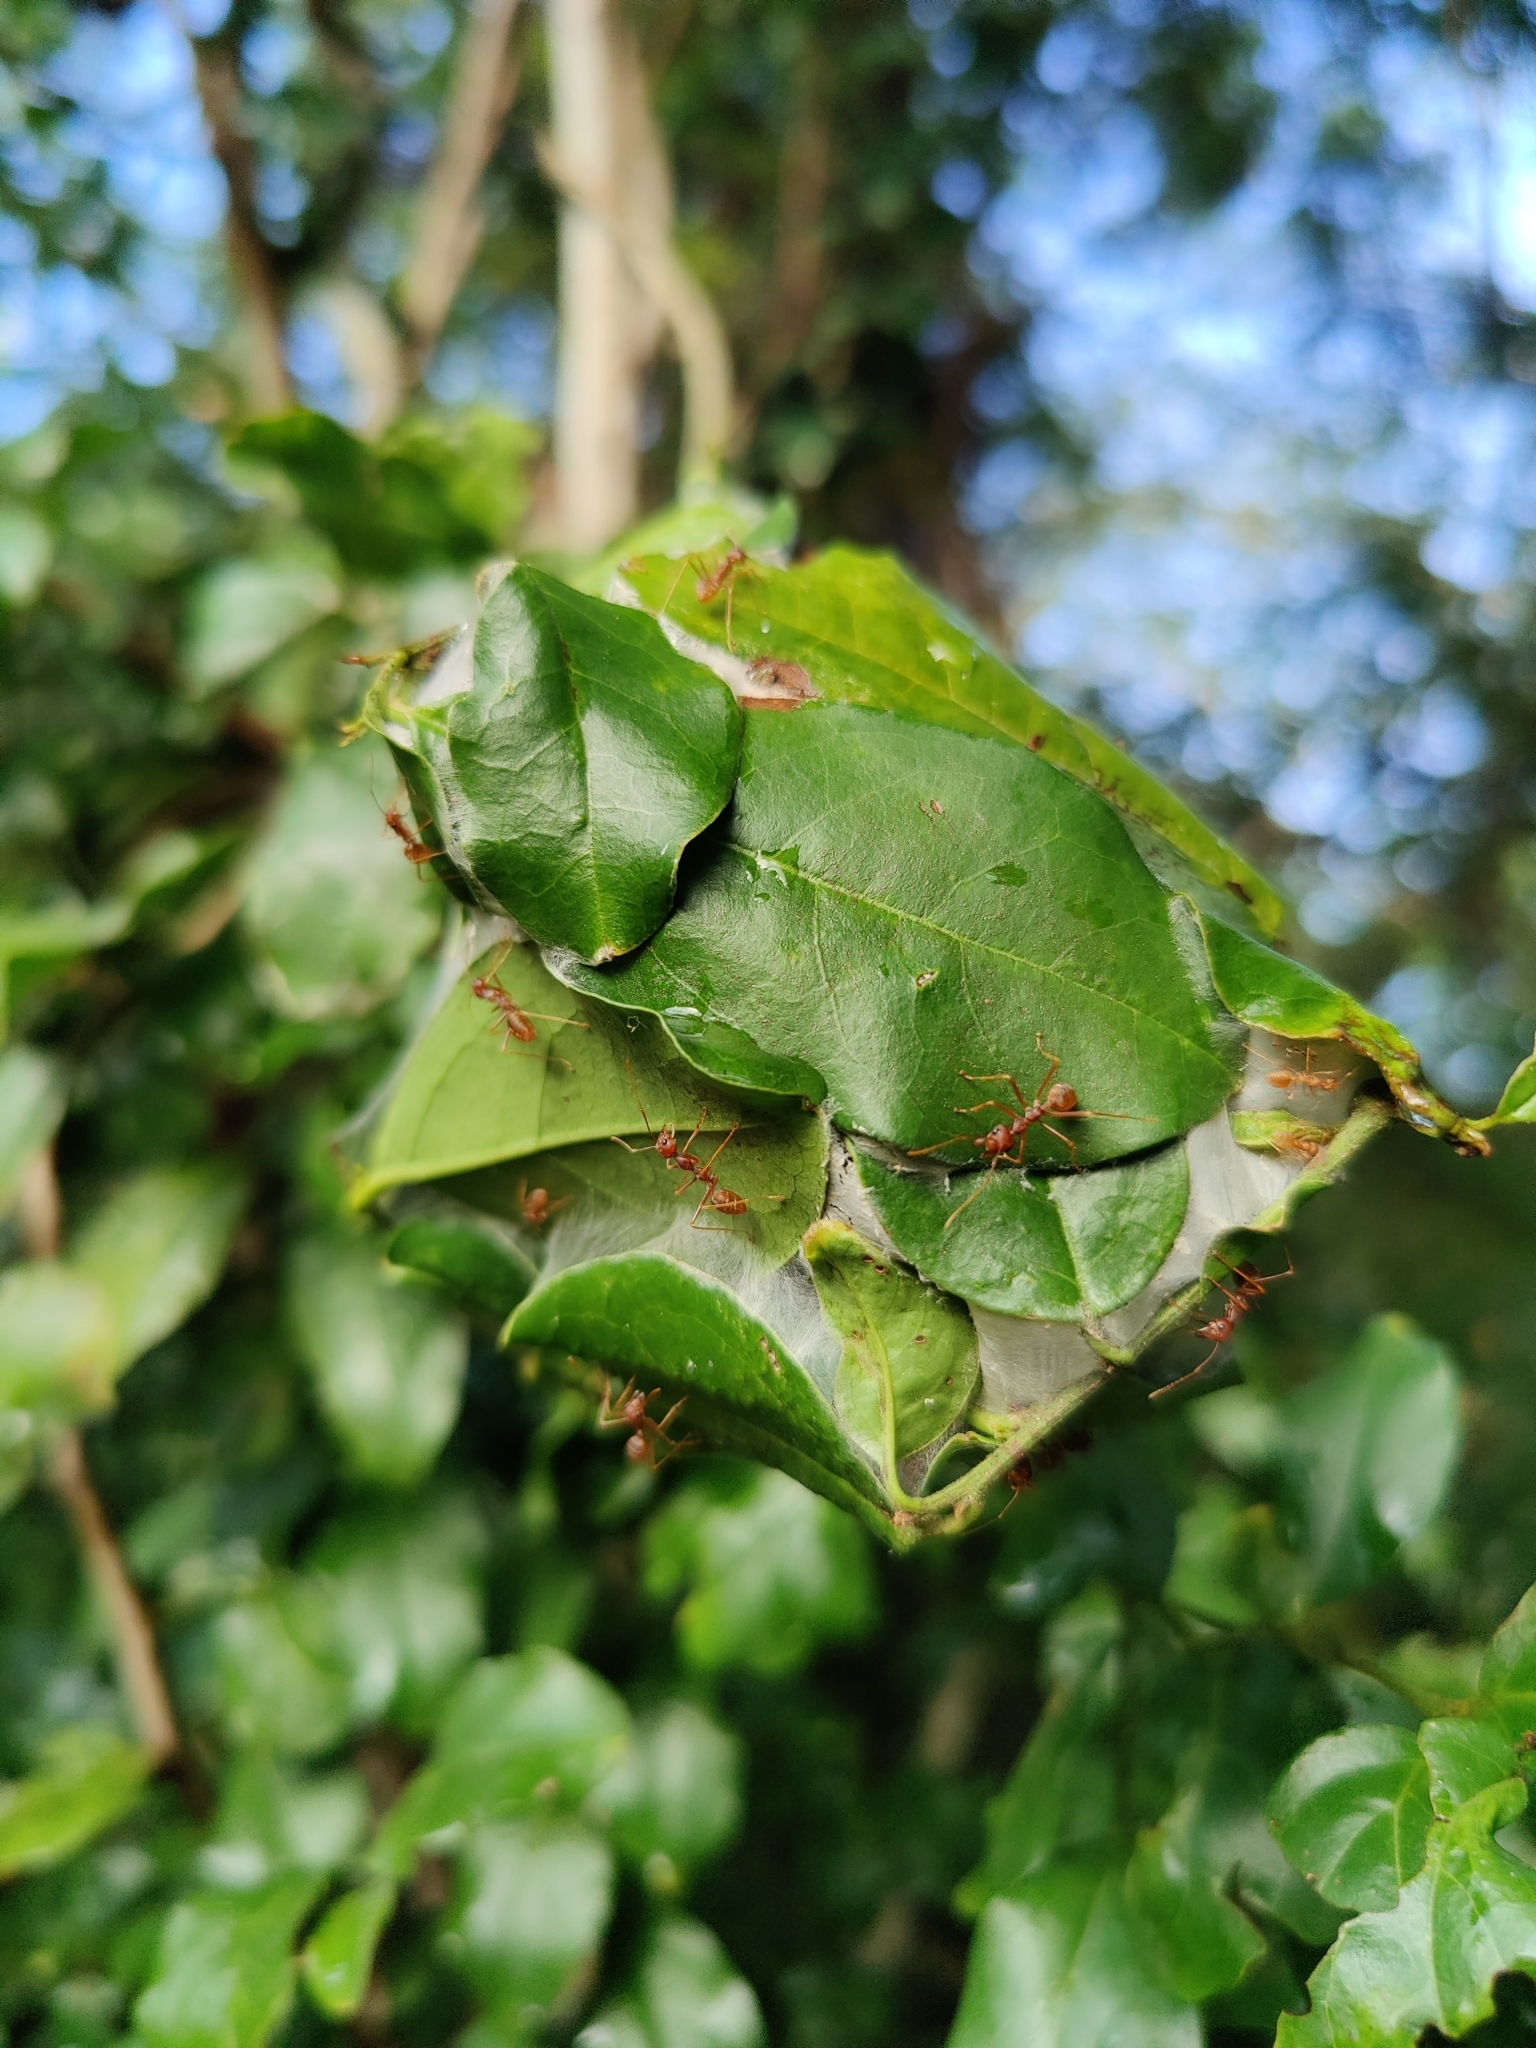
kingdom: Animalia
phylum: Arthropoda
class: Insecta
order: Hymenoptera
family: Formicidae
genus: Oecophylla
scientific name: Oecophylla longinoda
